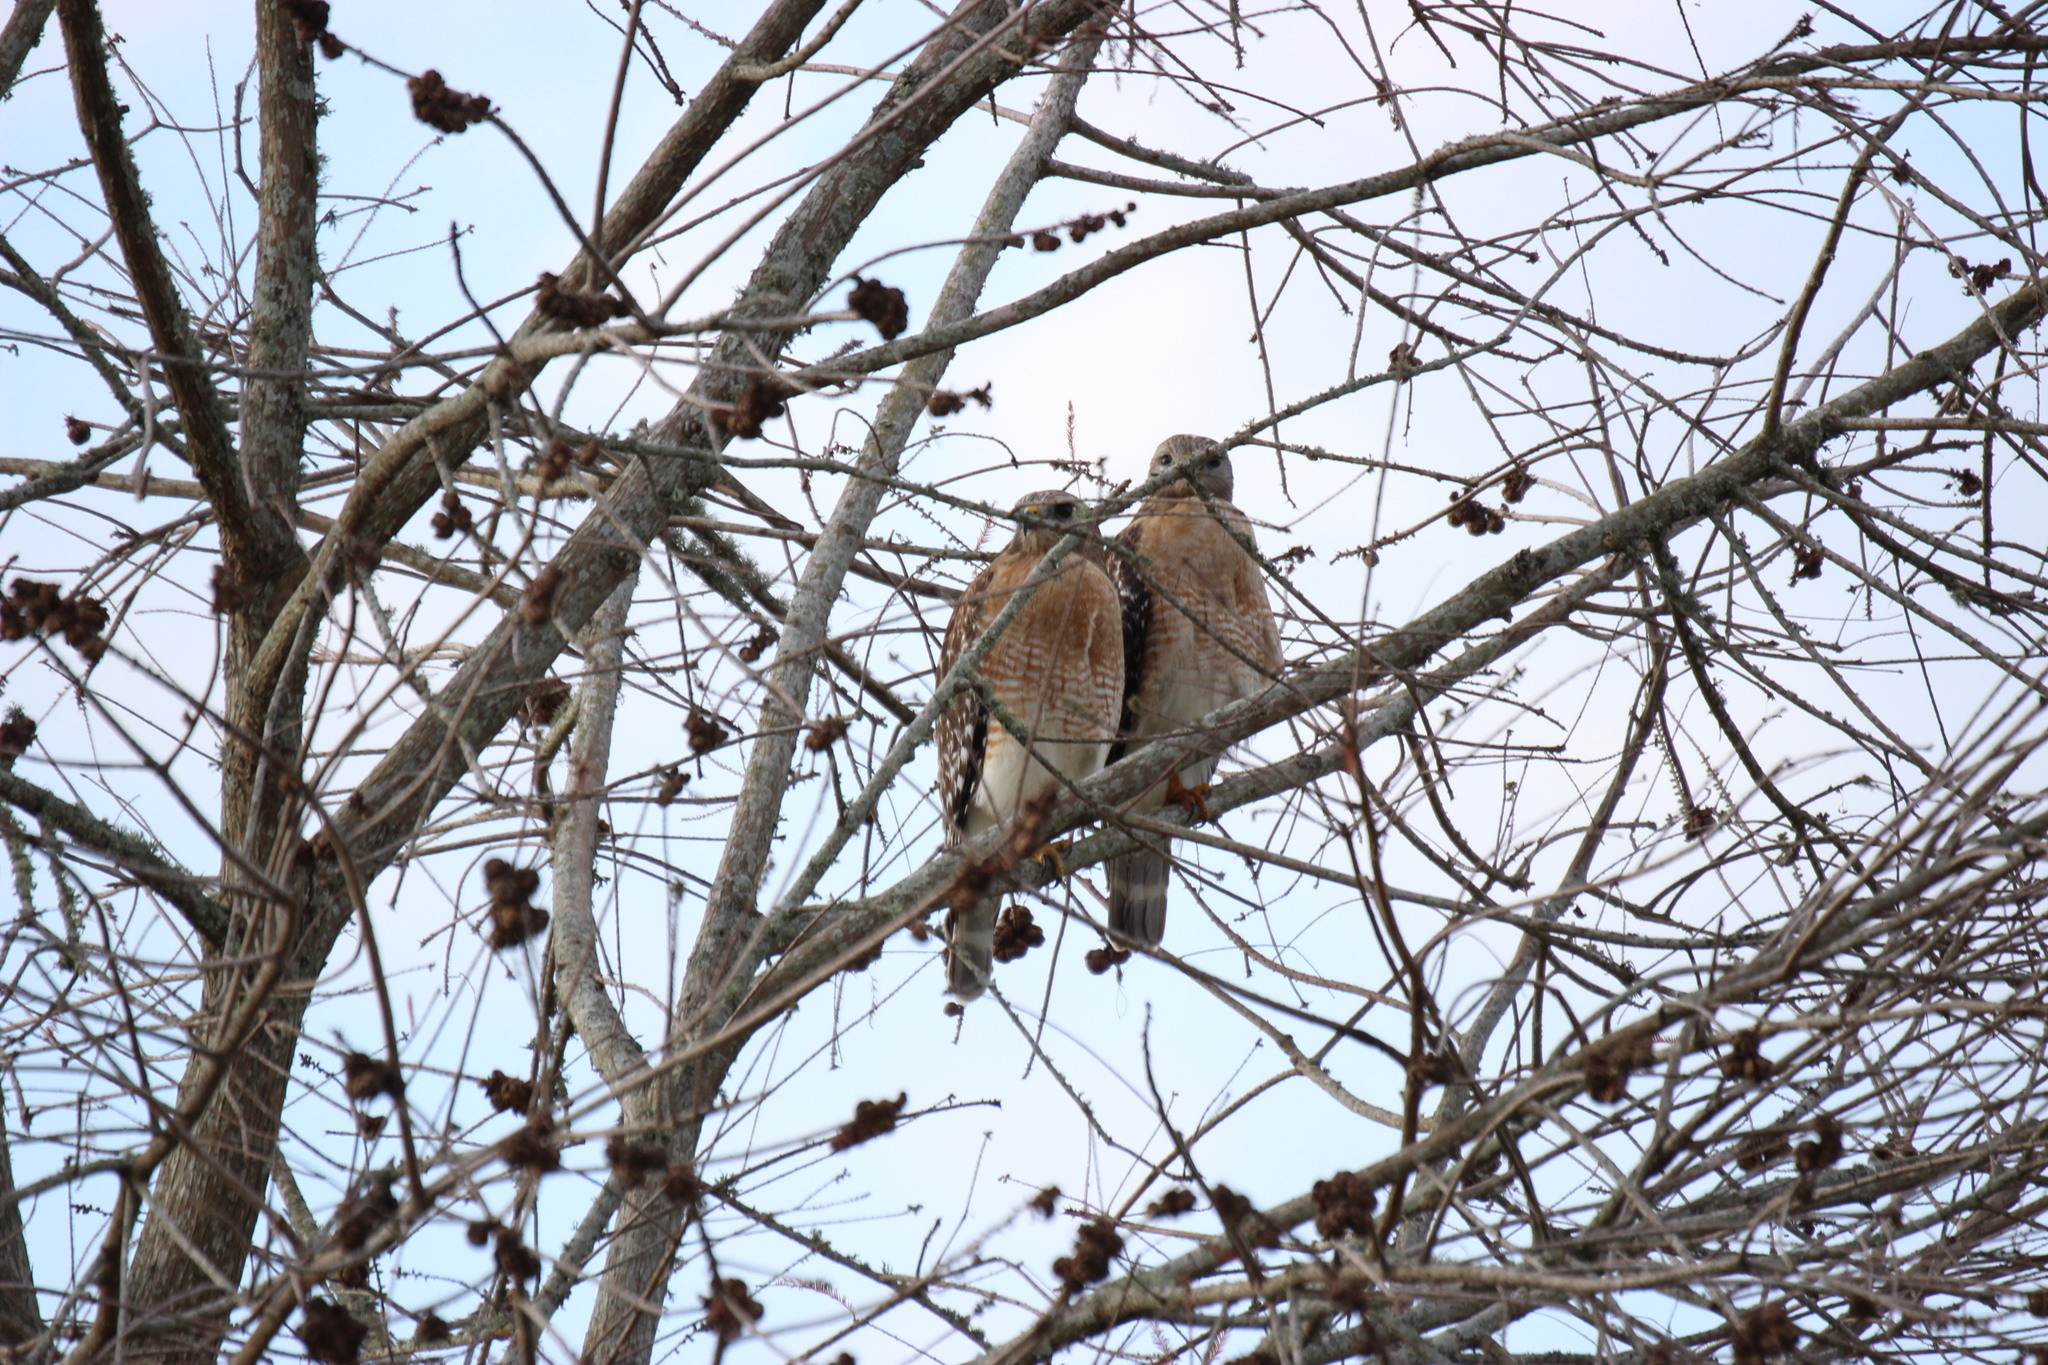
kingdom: Animalia
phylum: Chordata
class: Aves
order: Accipitriformes
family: Accipitridae
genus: Buteo
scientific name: Buteo lineatus
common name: Red-shouldered hawk
